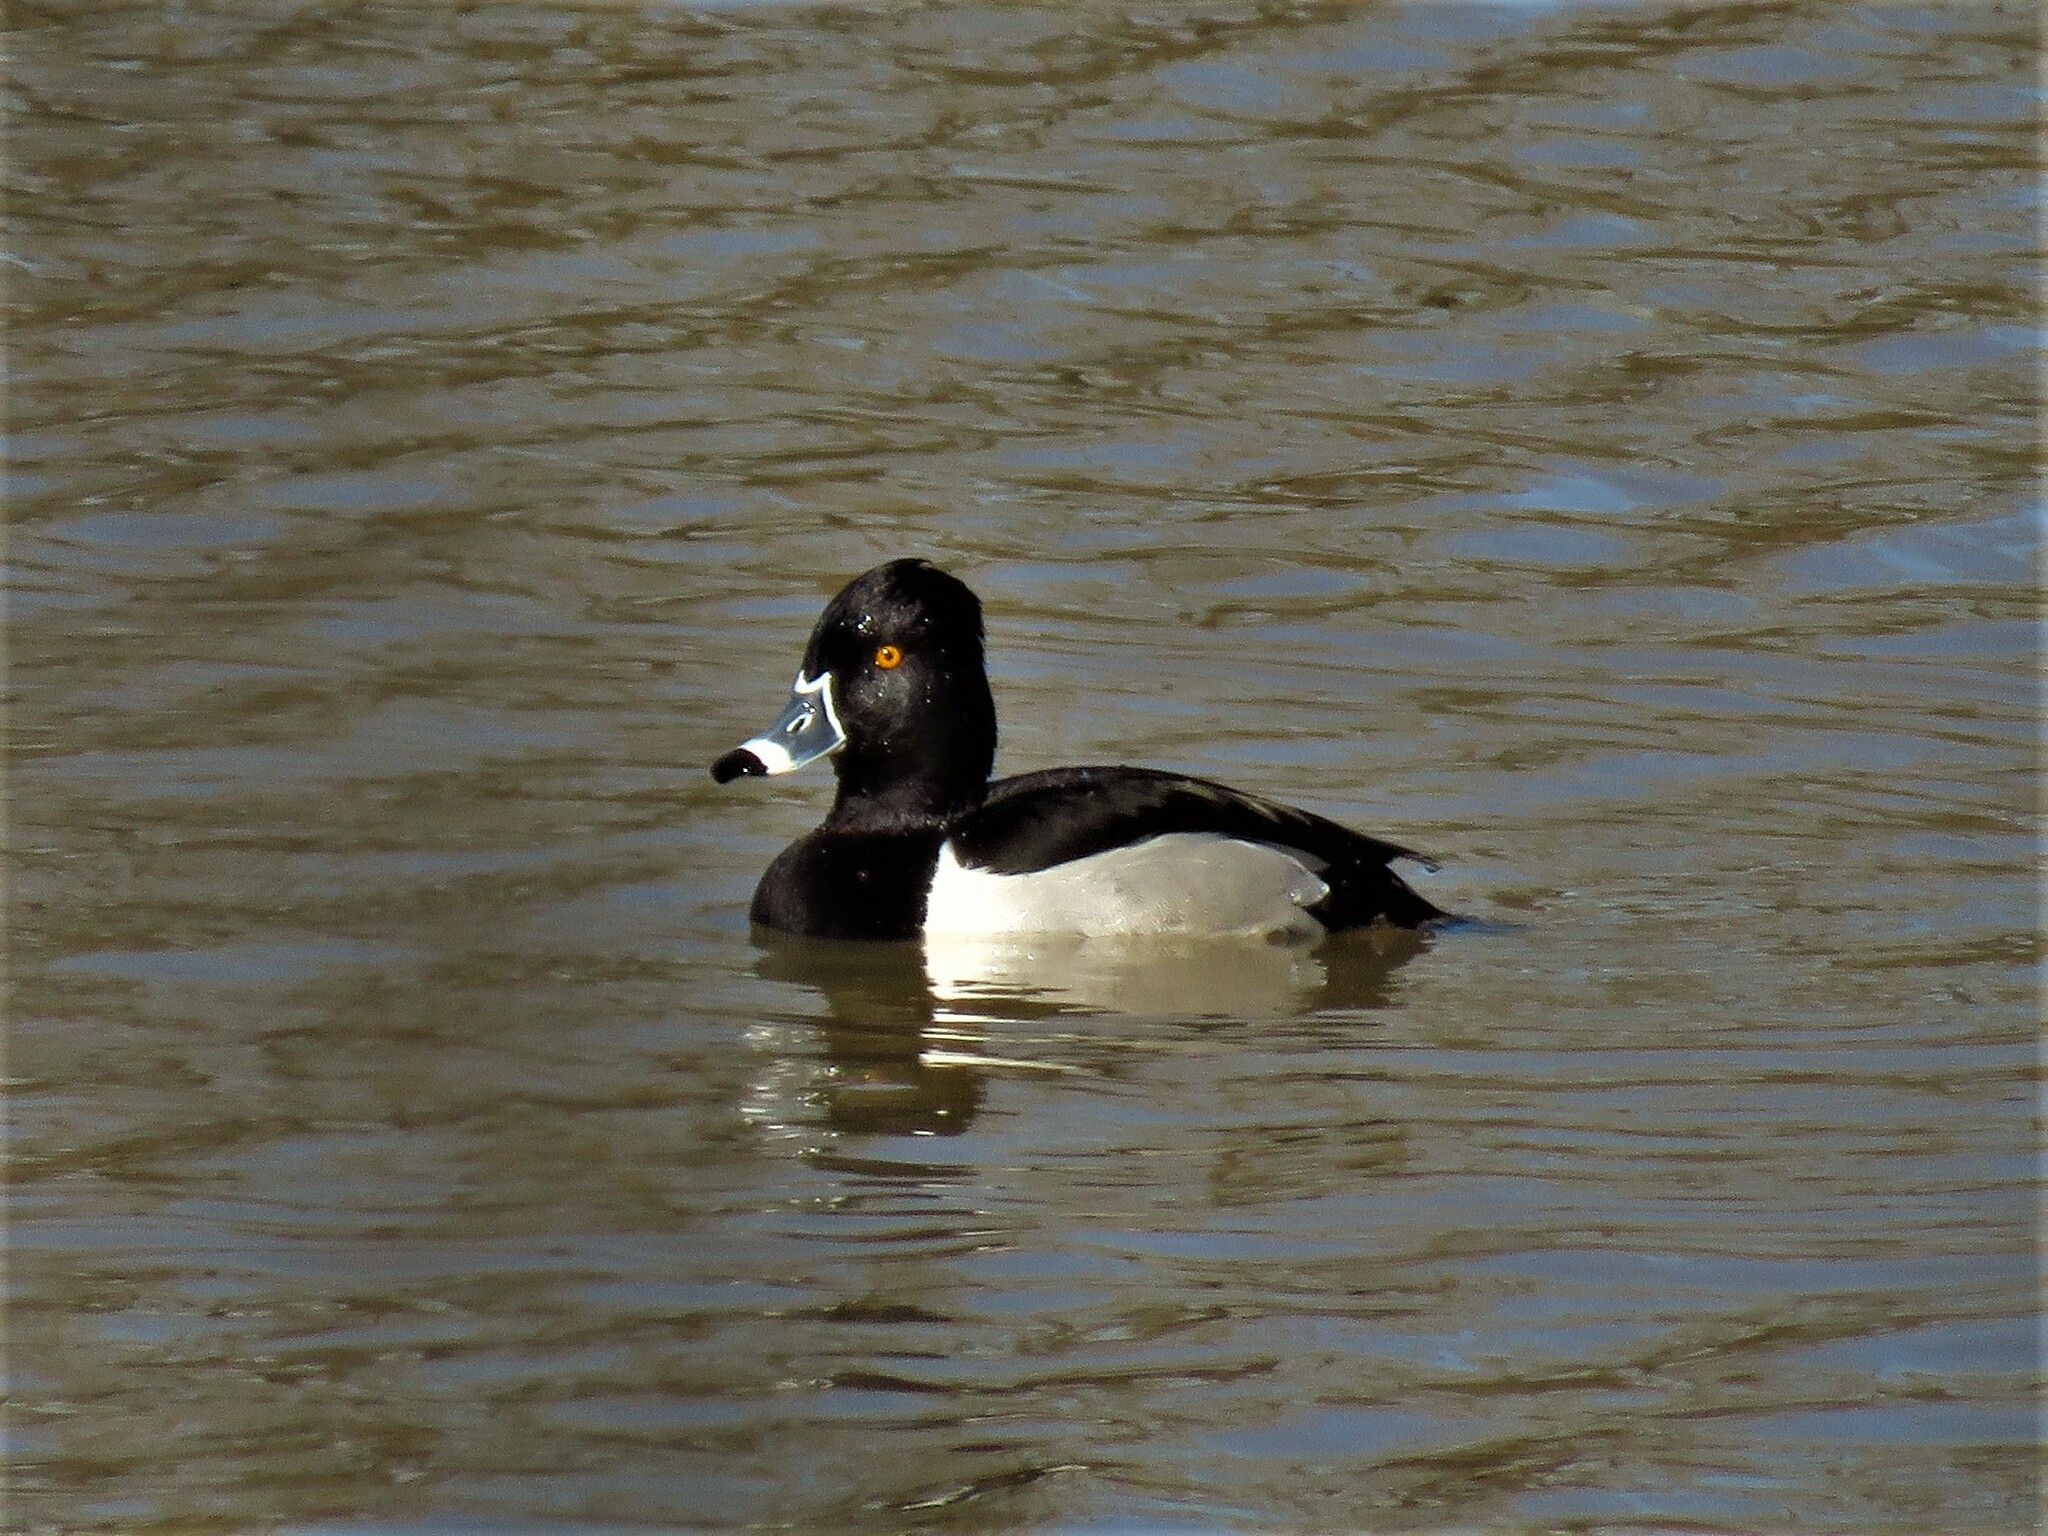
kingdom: Animalia
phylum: Chordata
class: Aves
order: Anseriformes
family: Anatidae
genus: Aythya
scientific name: Aythya collaris
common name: Ring-necked duck
